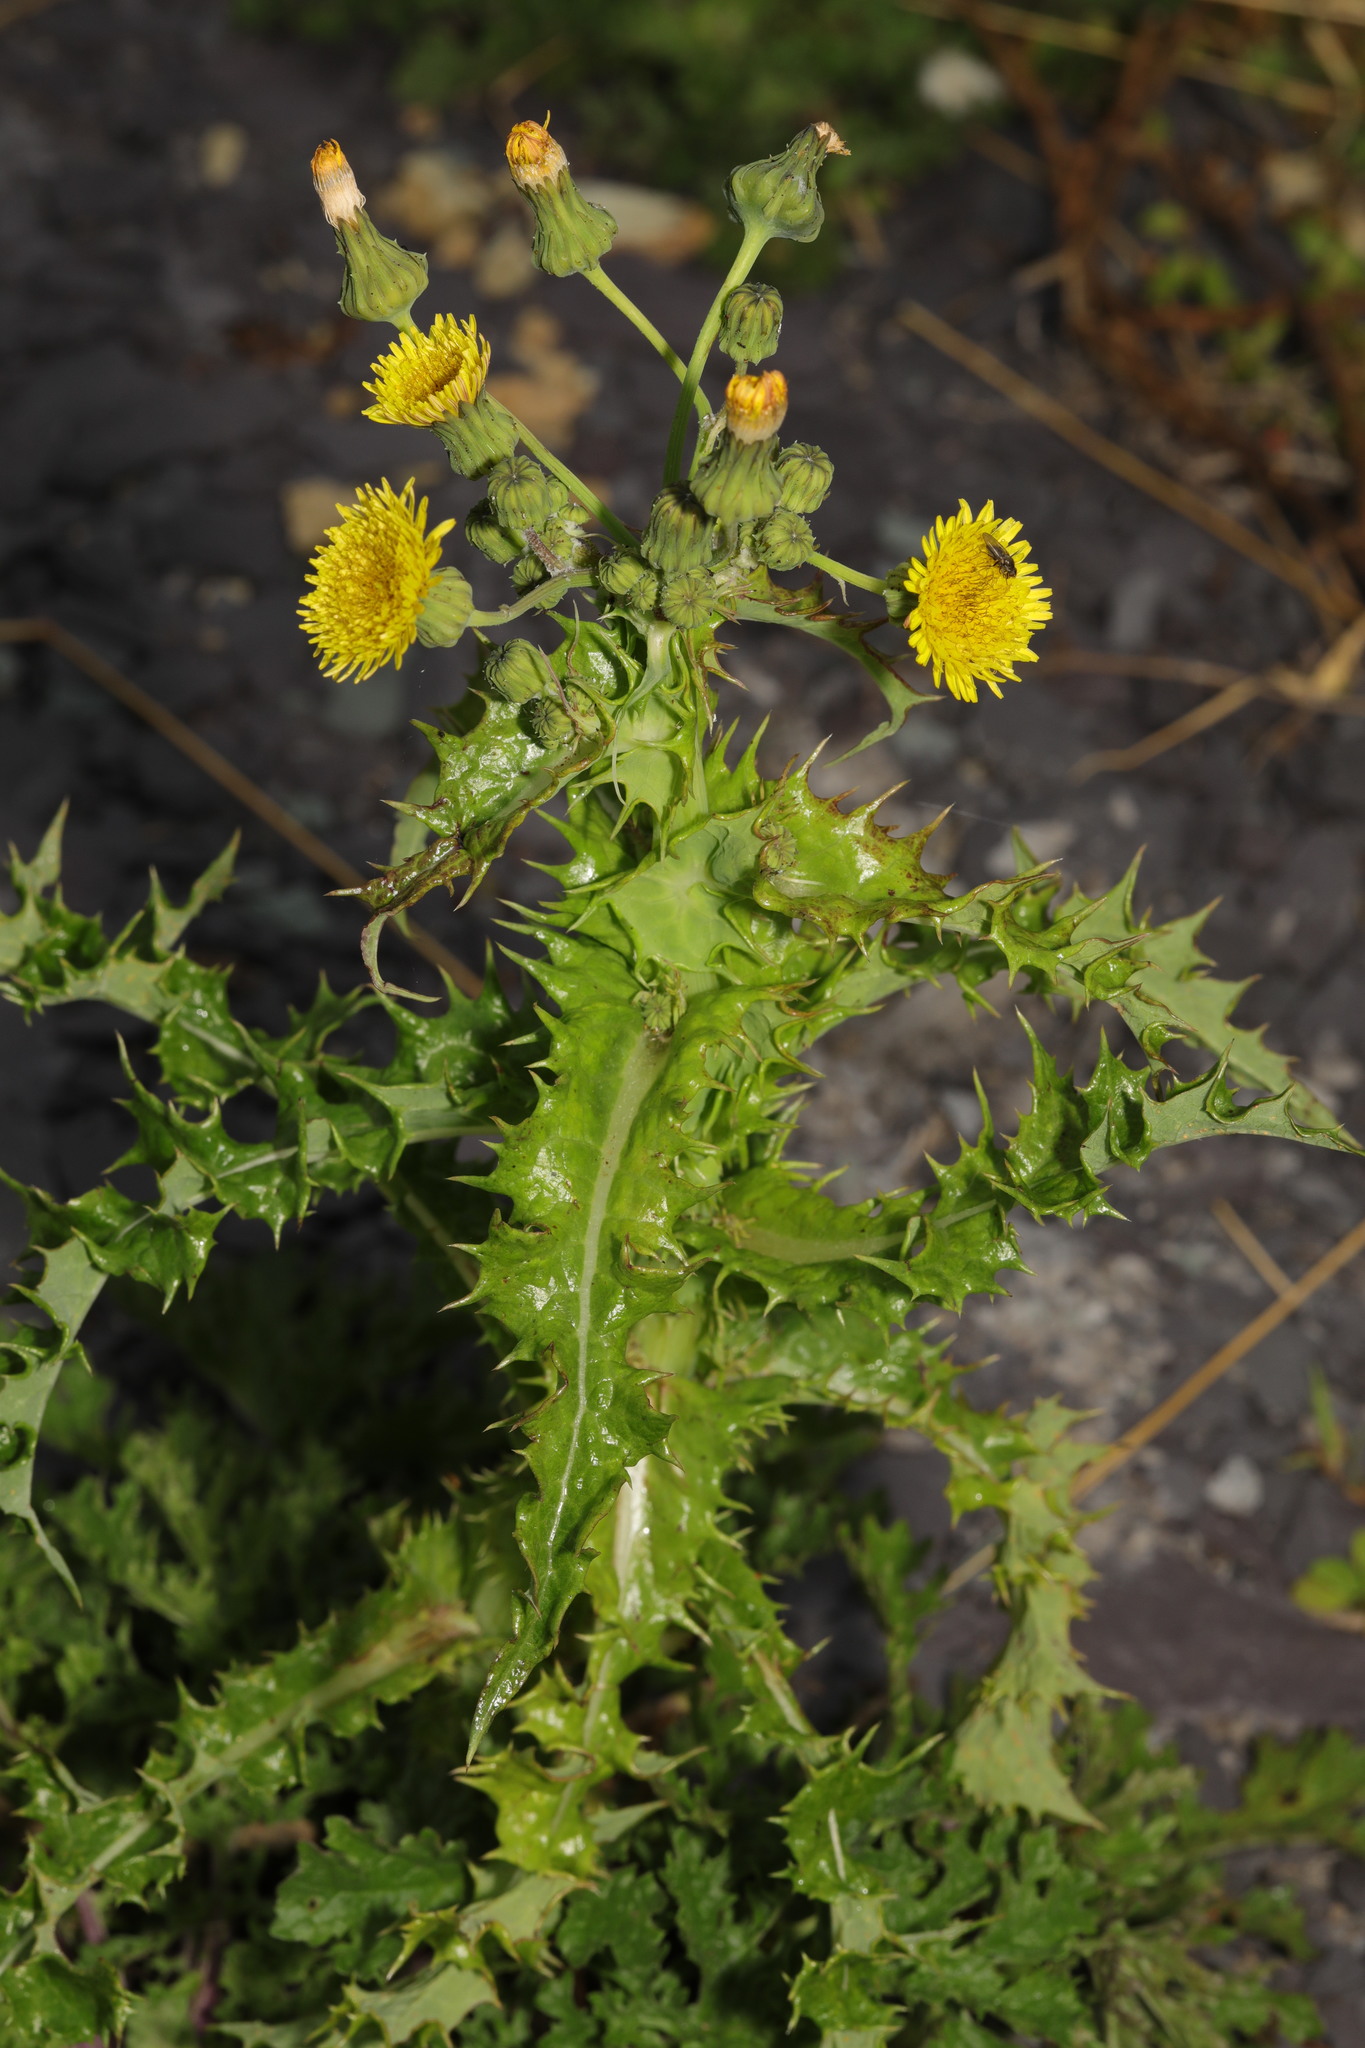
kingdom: Plantae
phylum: Tracheophyta
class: Magnoliopsida
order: Asterales
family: Asteraceae
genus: Sonchus
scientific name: Sonchus asper
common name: Prickly sow-thistle
